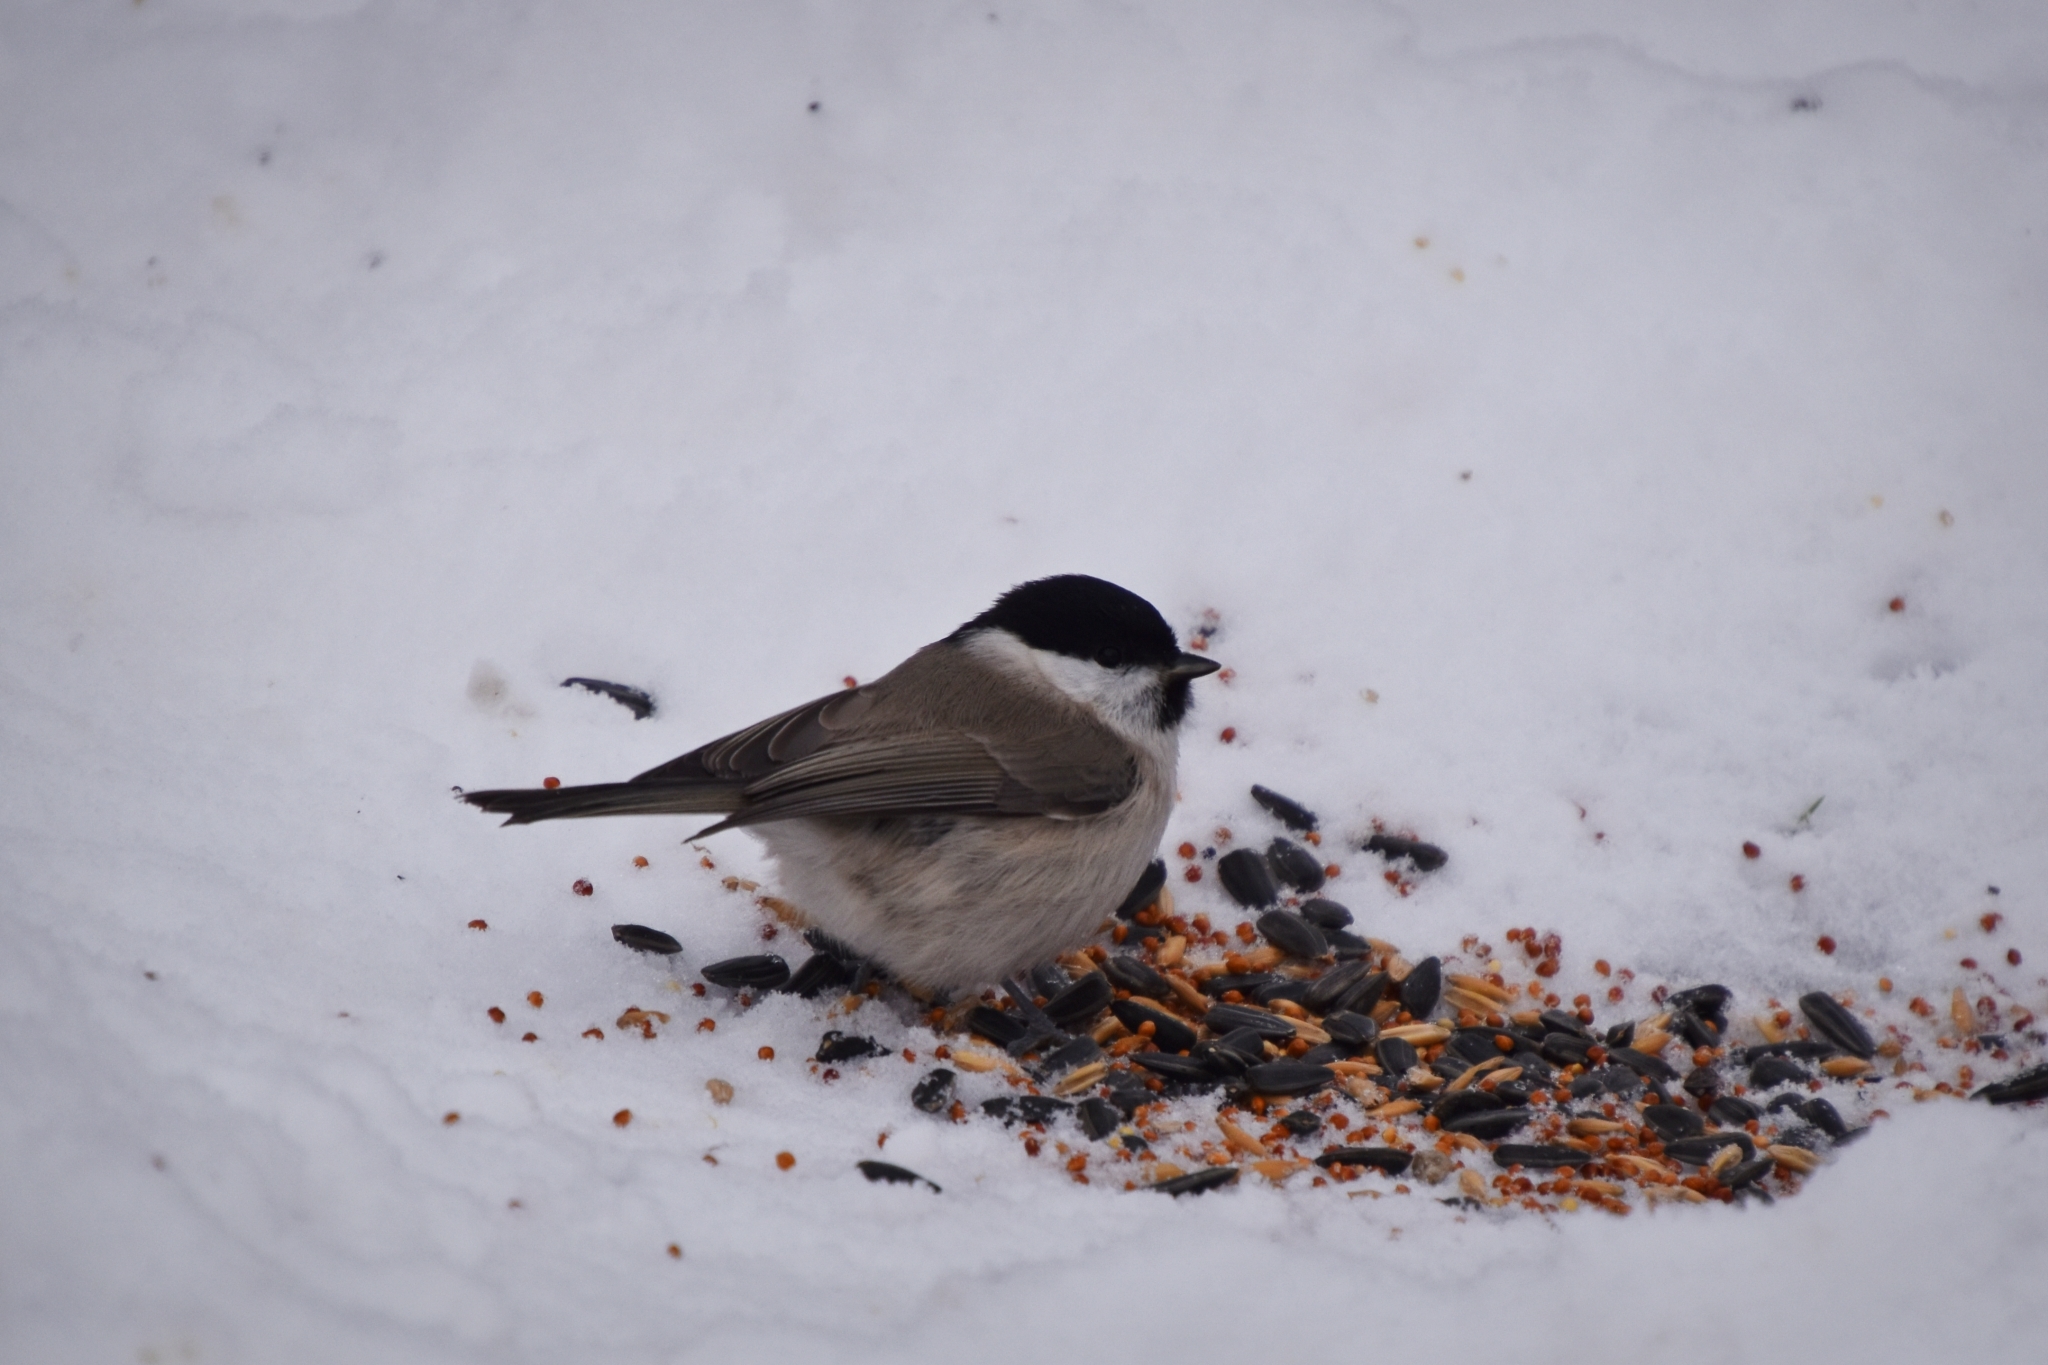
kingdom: Animalia
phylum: Chordata
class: Aves
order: Passeriformes
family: Paridae
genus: Poecile
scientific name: Poecile palustris
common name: Marsh tit
